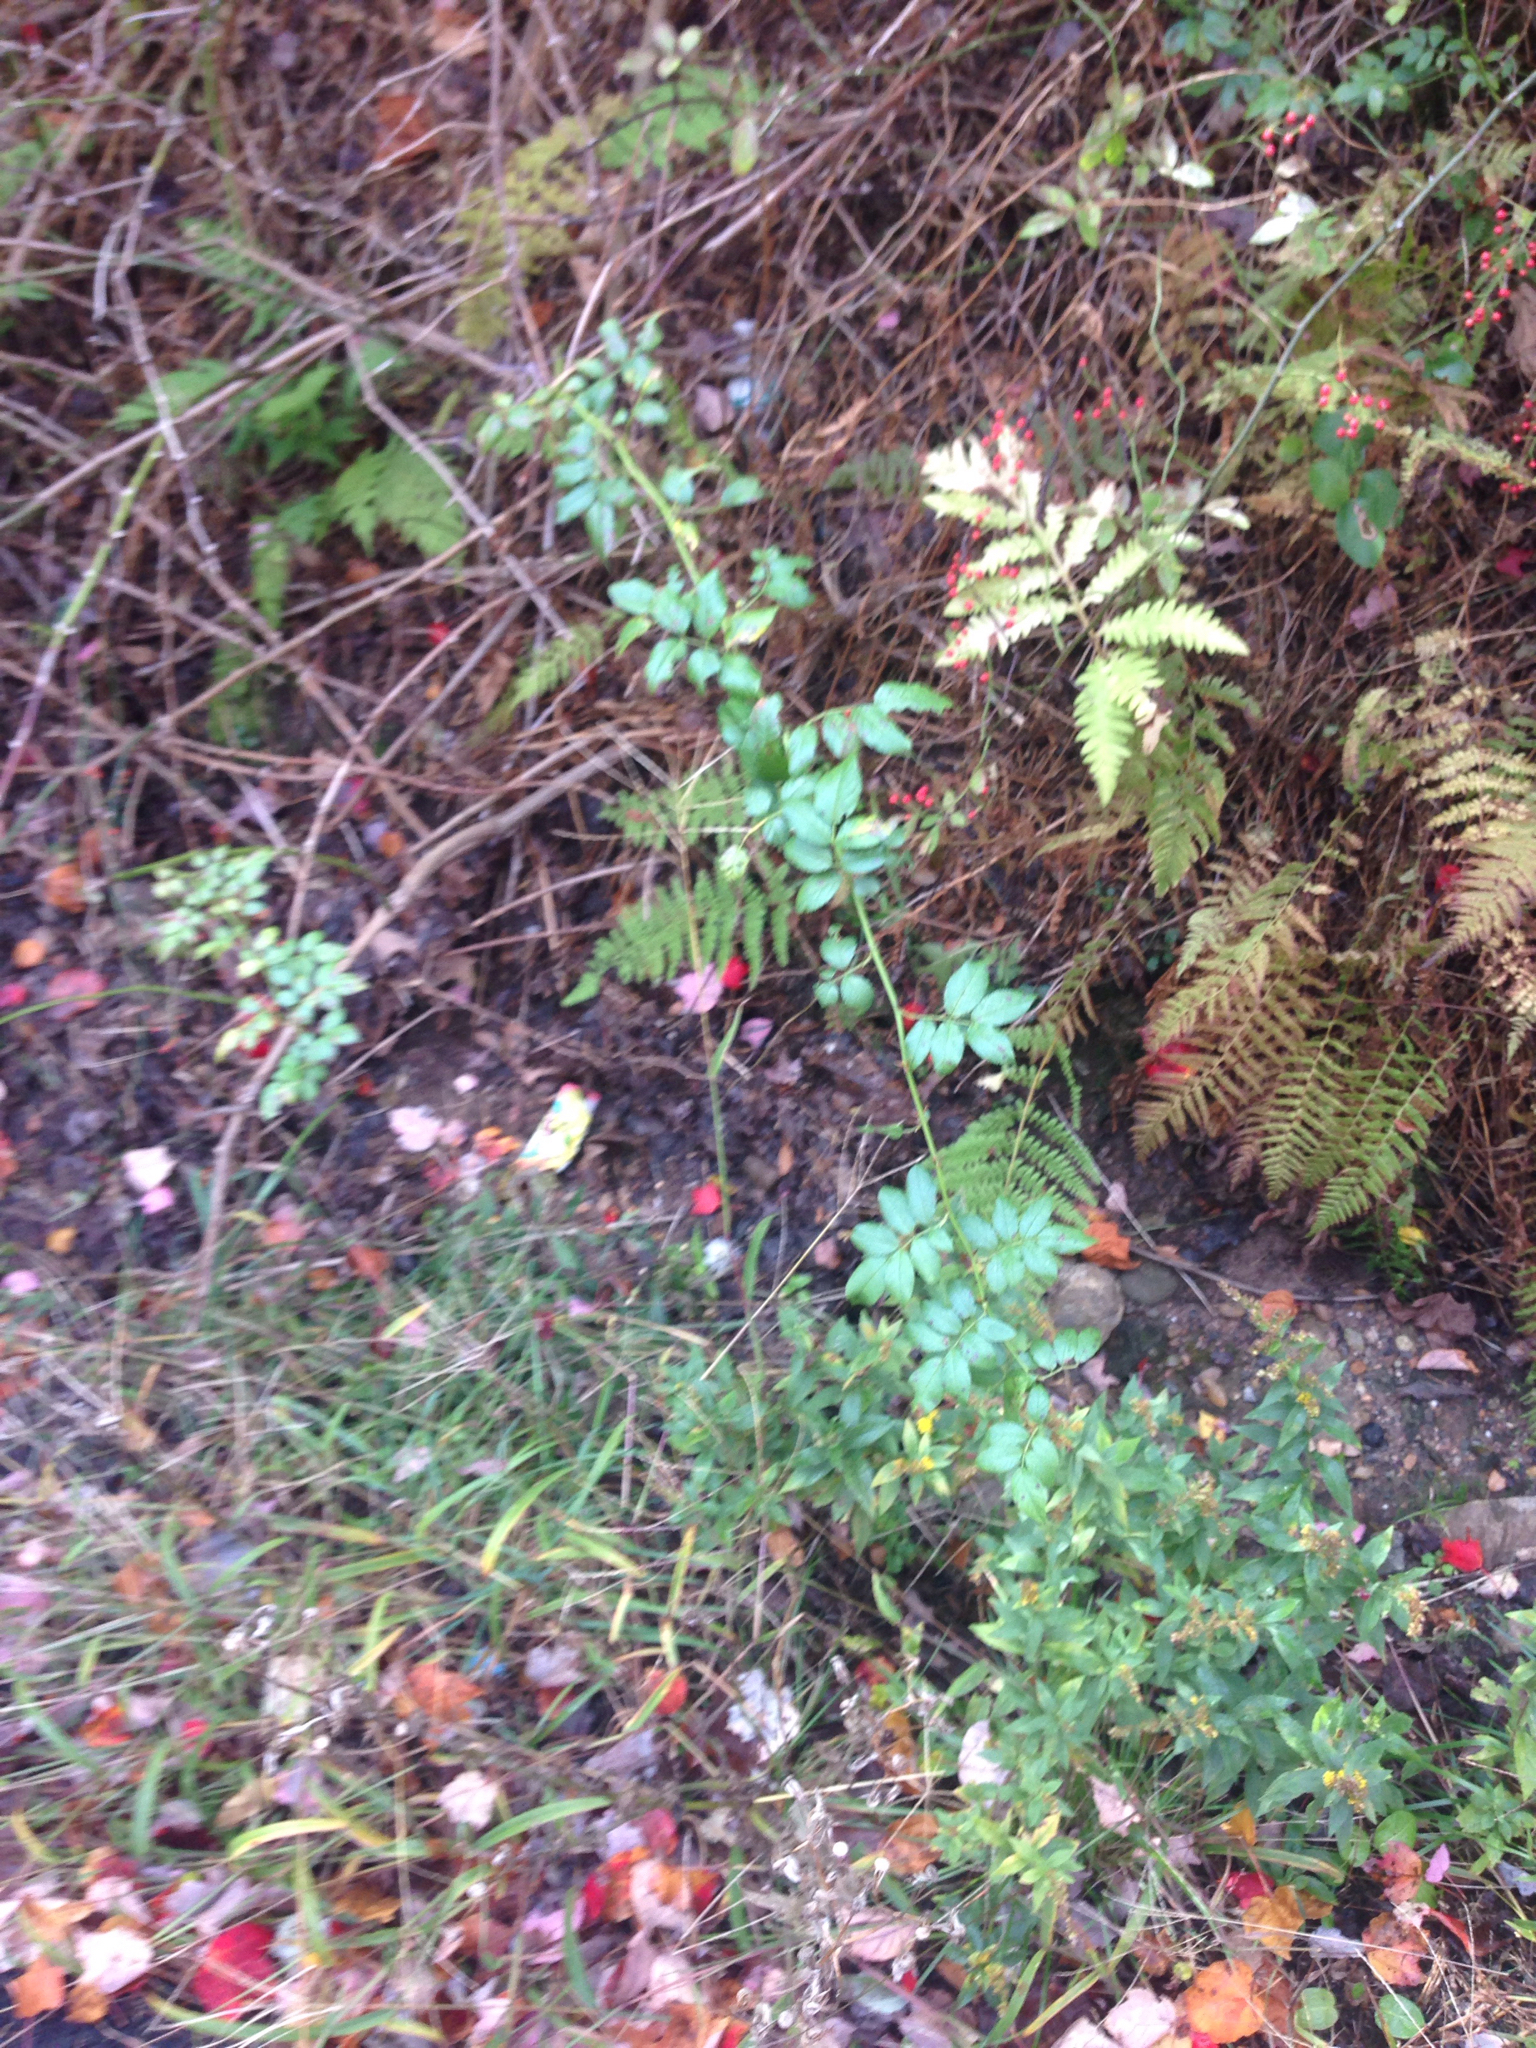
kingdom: Plantae
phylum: Tracheophyta
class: Magnoliopsida
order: Rosales
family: Rosaceae
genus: Rosa
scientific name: Rosa multiflora
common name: Multiflora rose
